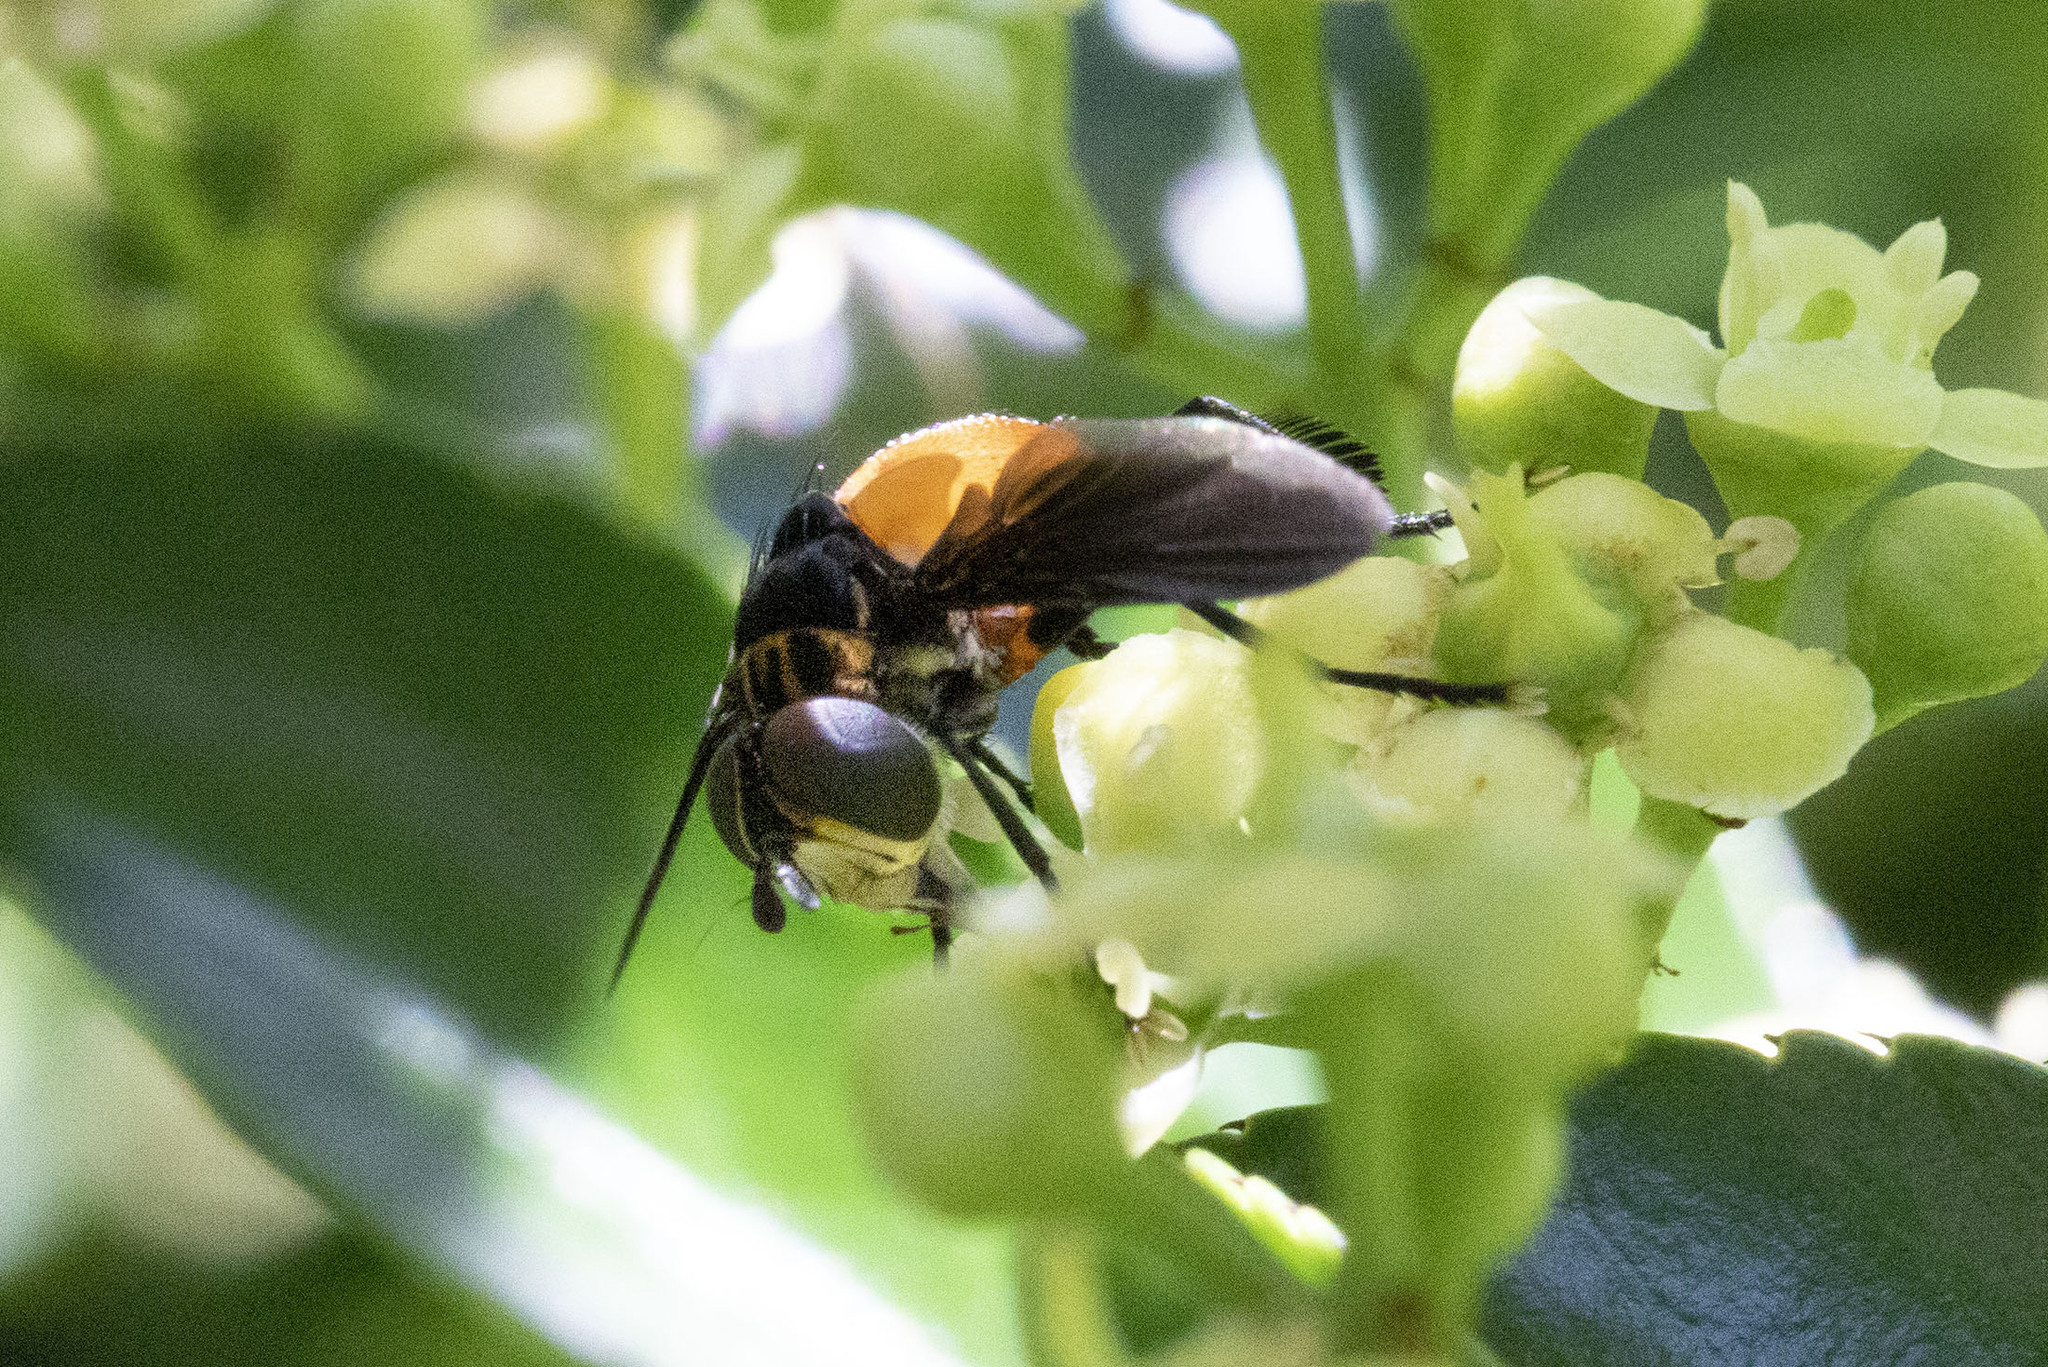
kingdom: Animalia
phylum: Arthropoda
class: Insecta
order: Diptera
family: Tachinidae
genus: Trichopoda
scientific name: Trichopoda pennipes
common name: Tachinid fly
